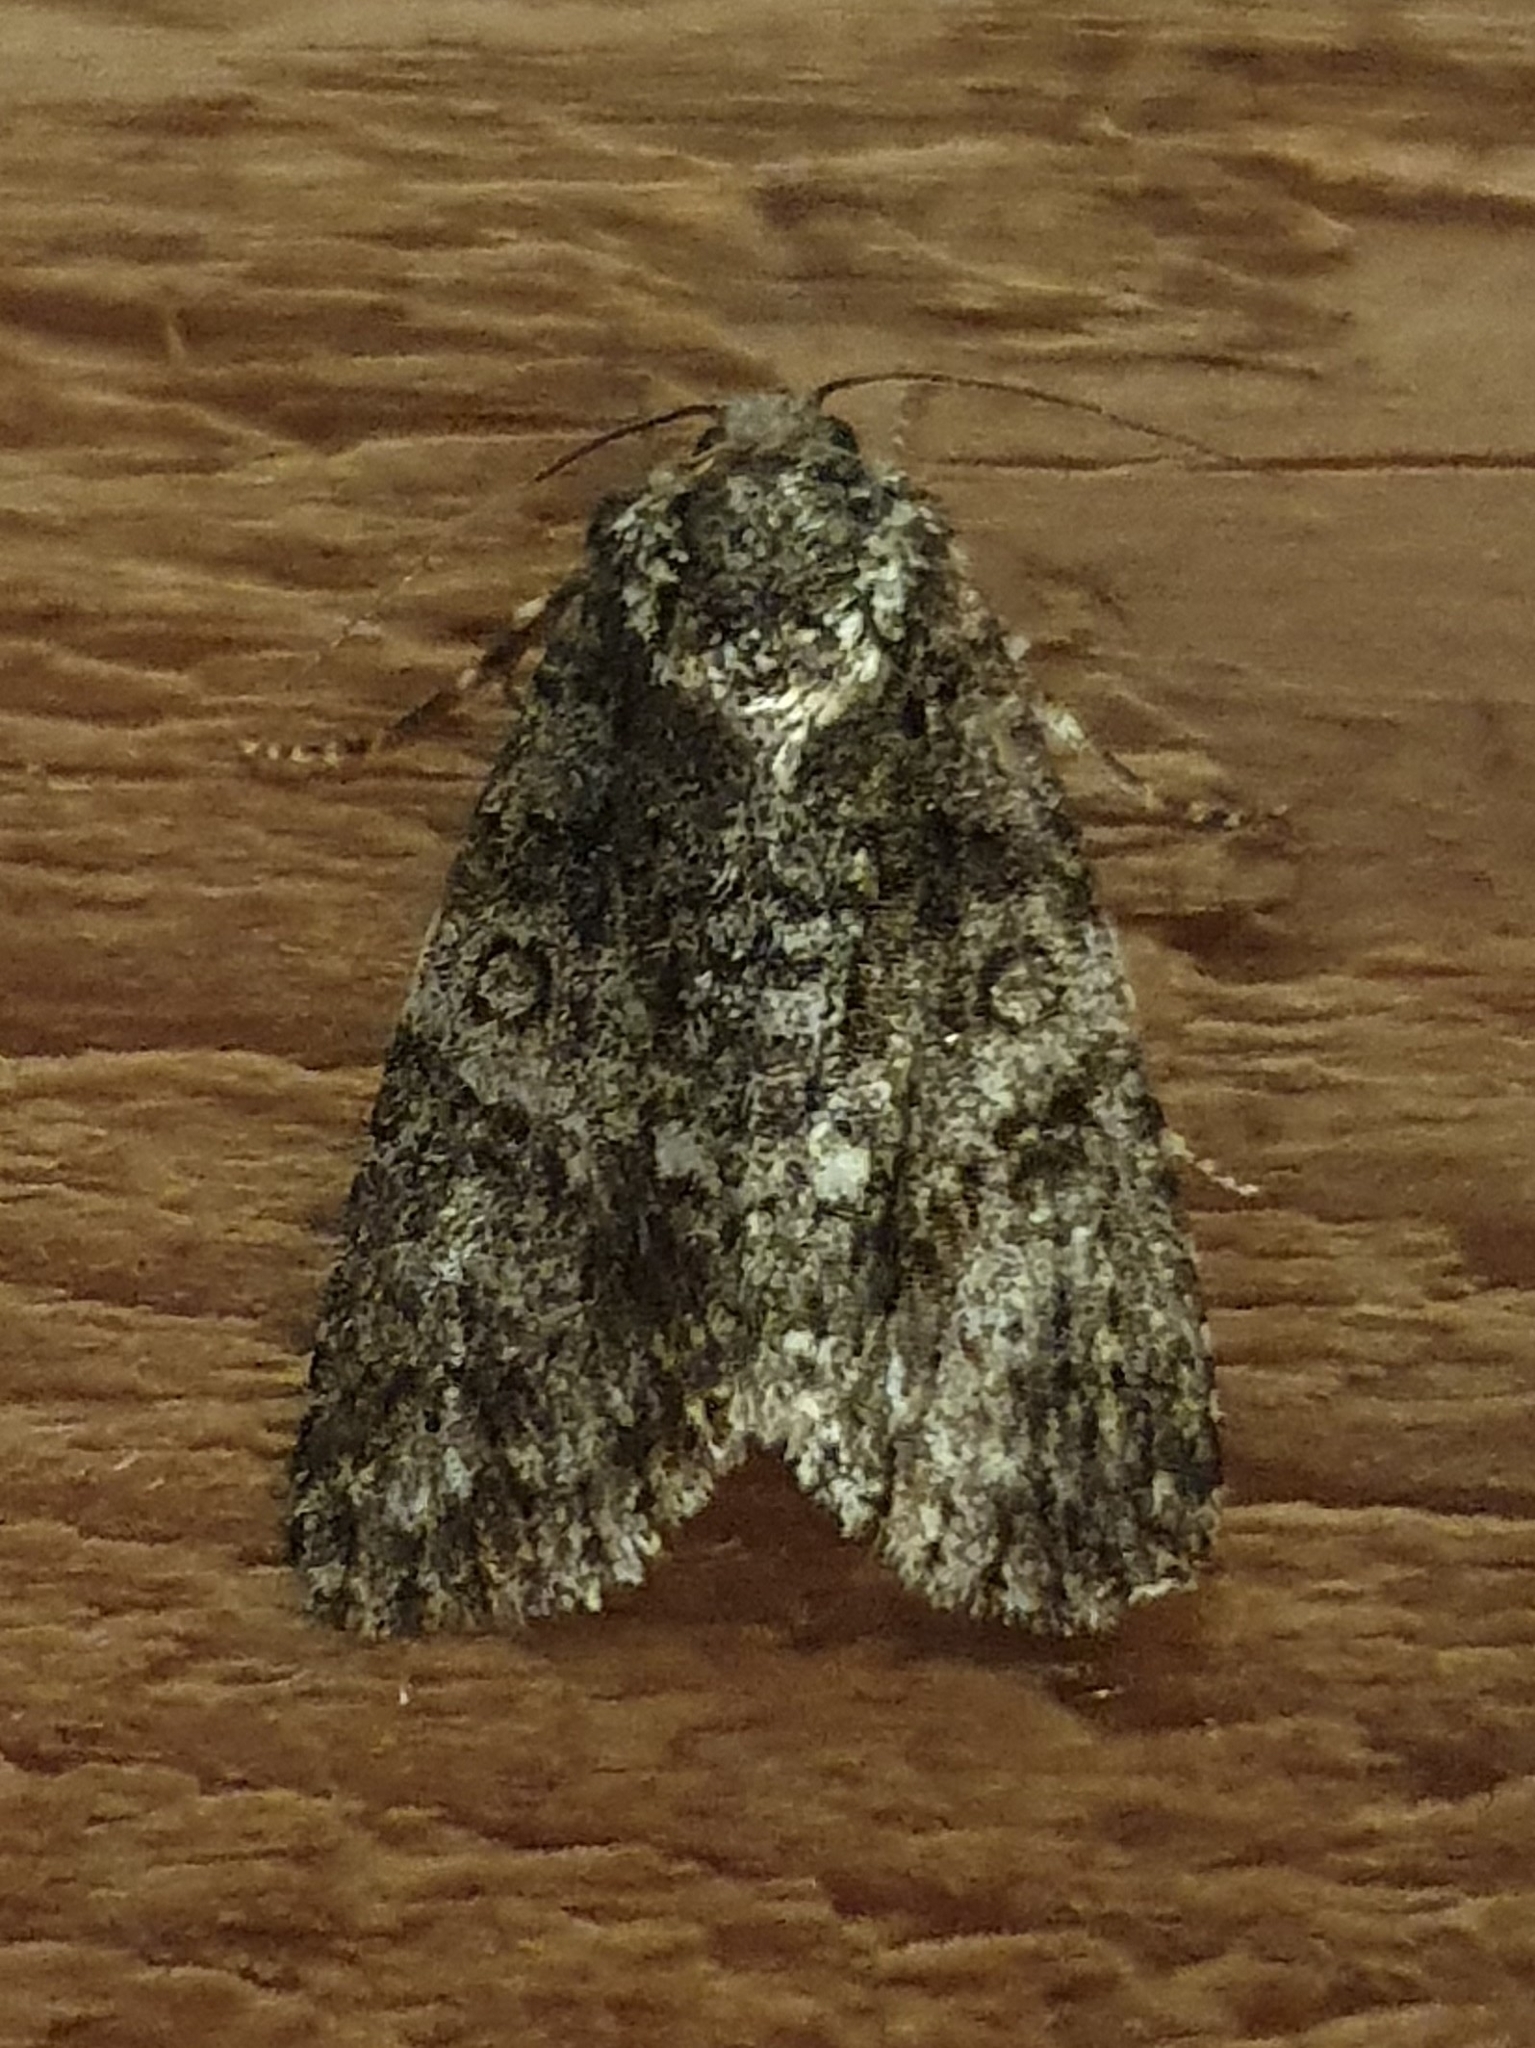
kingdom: Animalia
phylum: Arthropoda
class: Insecta
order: Lepidoptera
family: Noctuidae
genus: Acronicta
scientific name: Acronicta rumicis
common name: Knot grass
